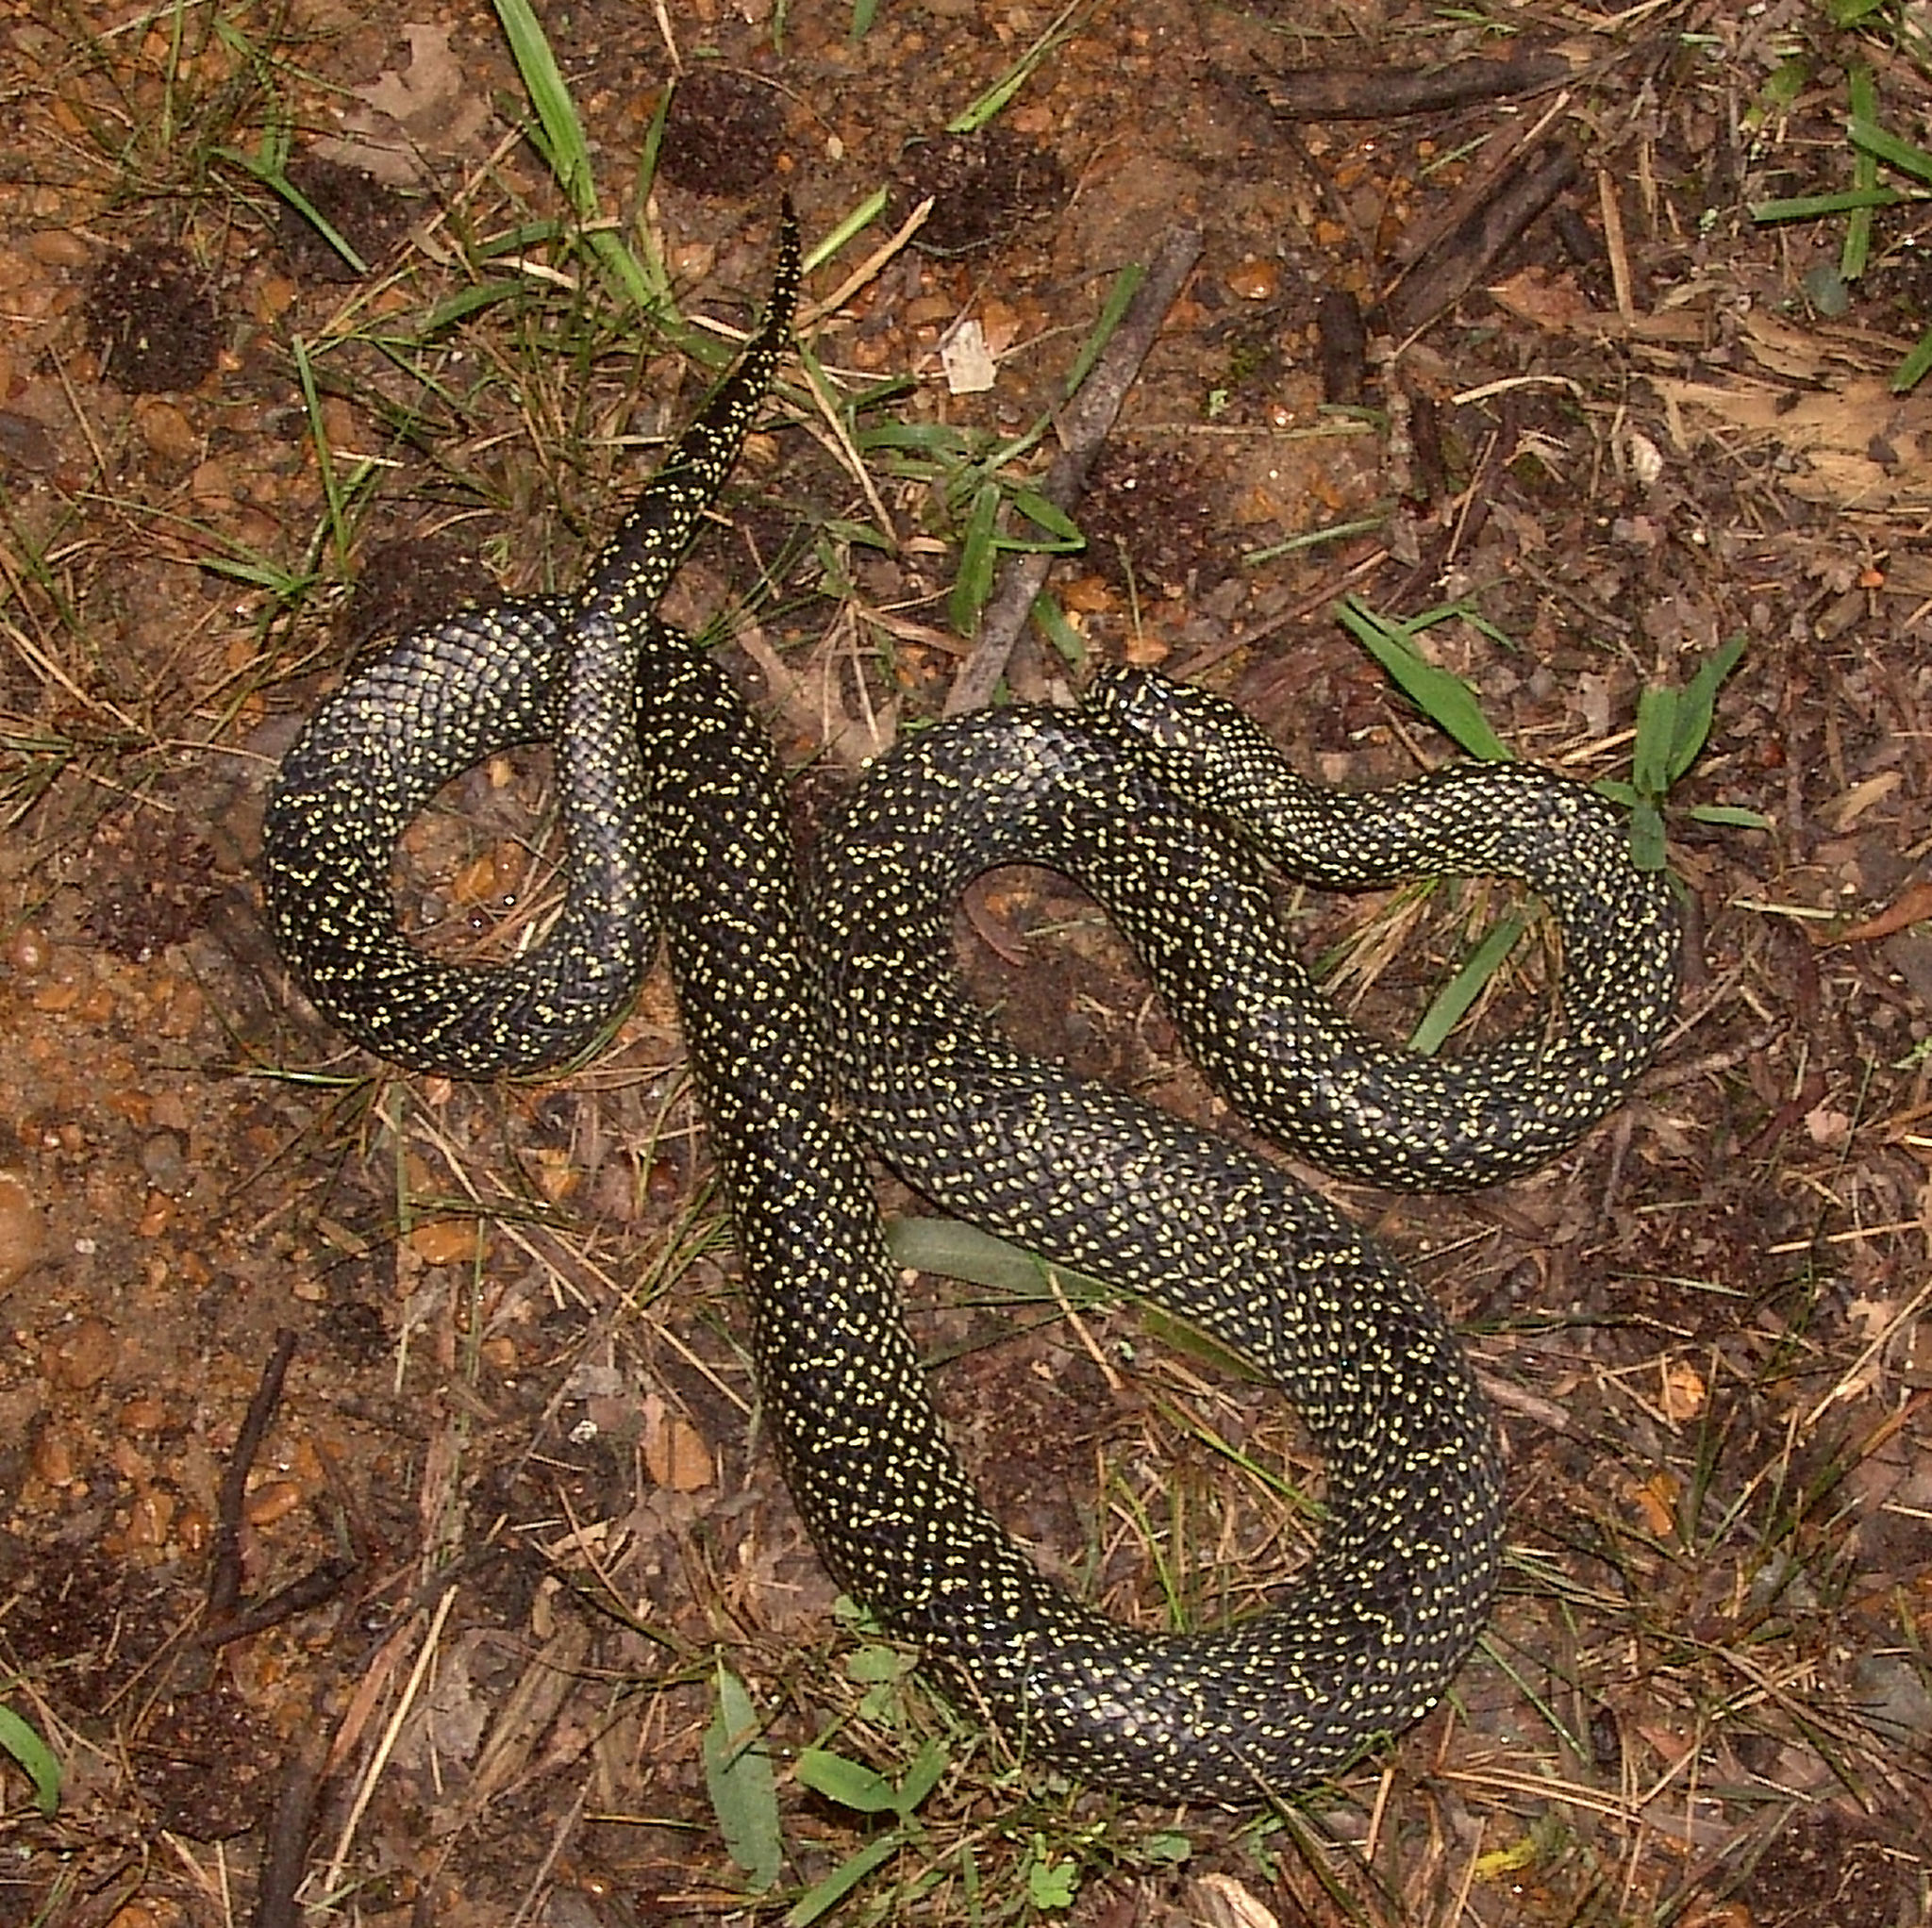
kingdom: Animalia
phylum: Chordata
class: Squamata
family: Colubridae
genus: Lampropeltis
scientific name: Lampropeltis holbrooki
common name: Speckled kingsnake
